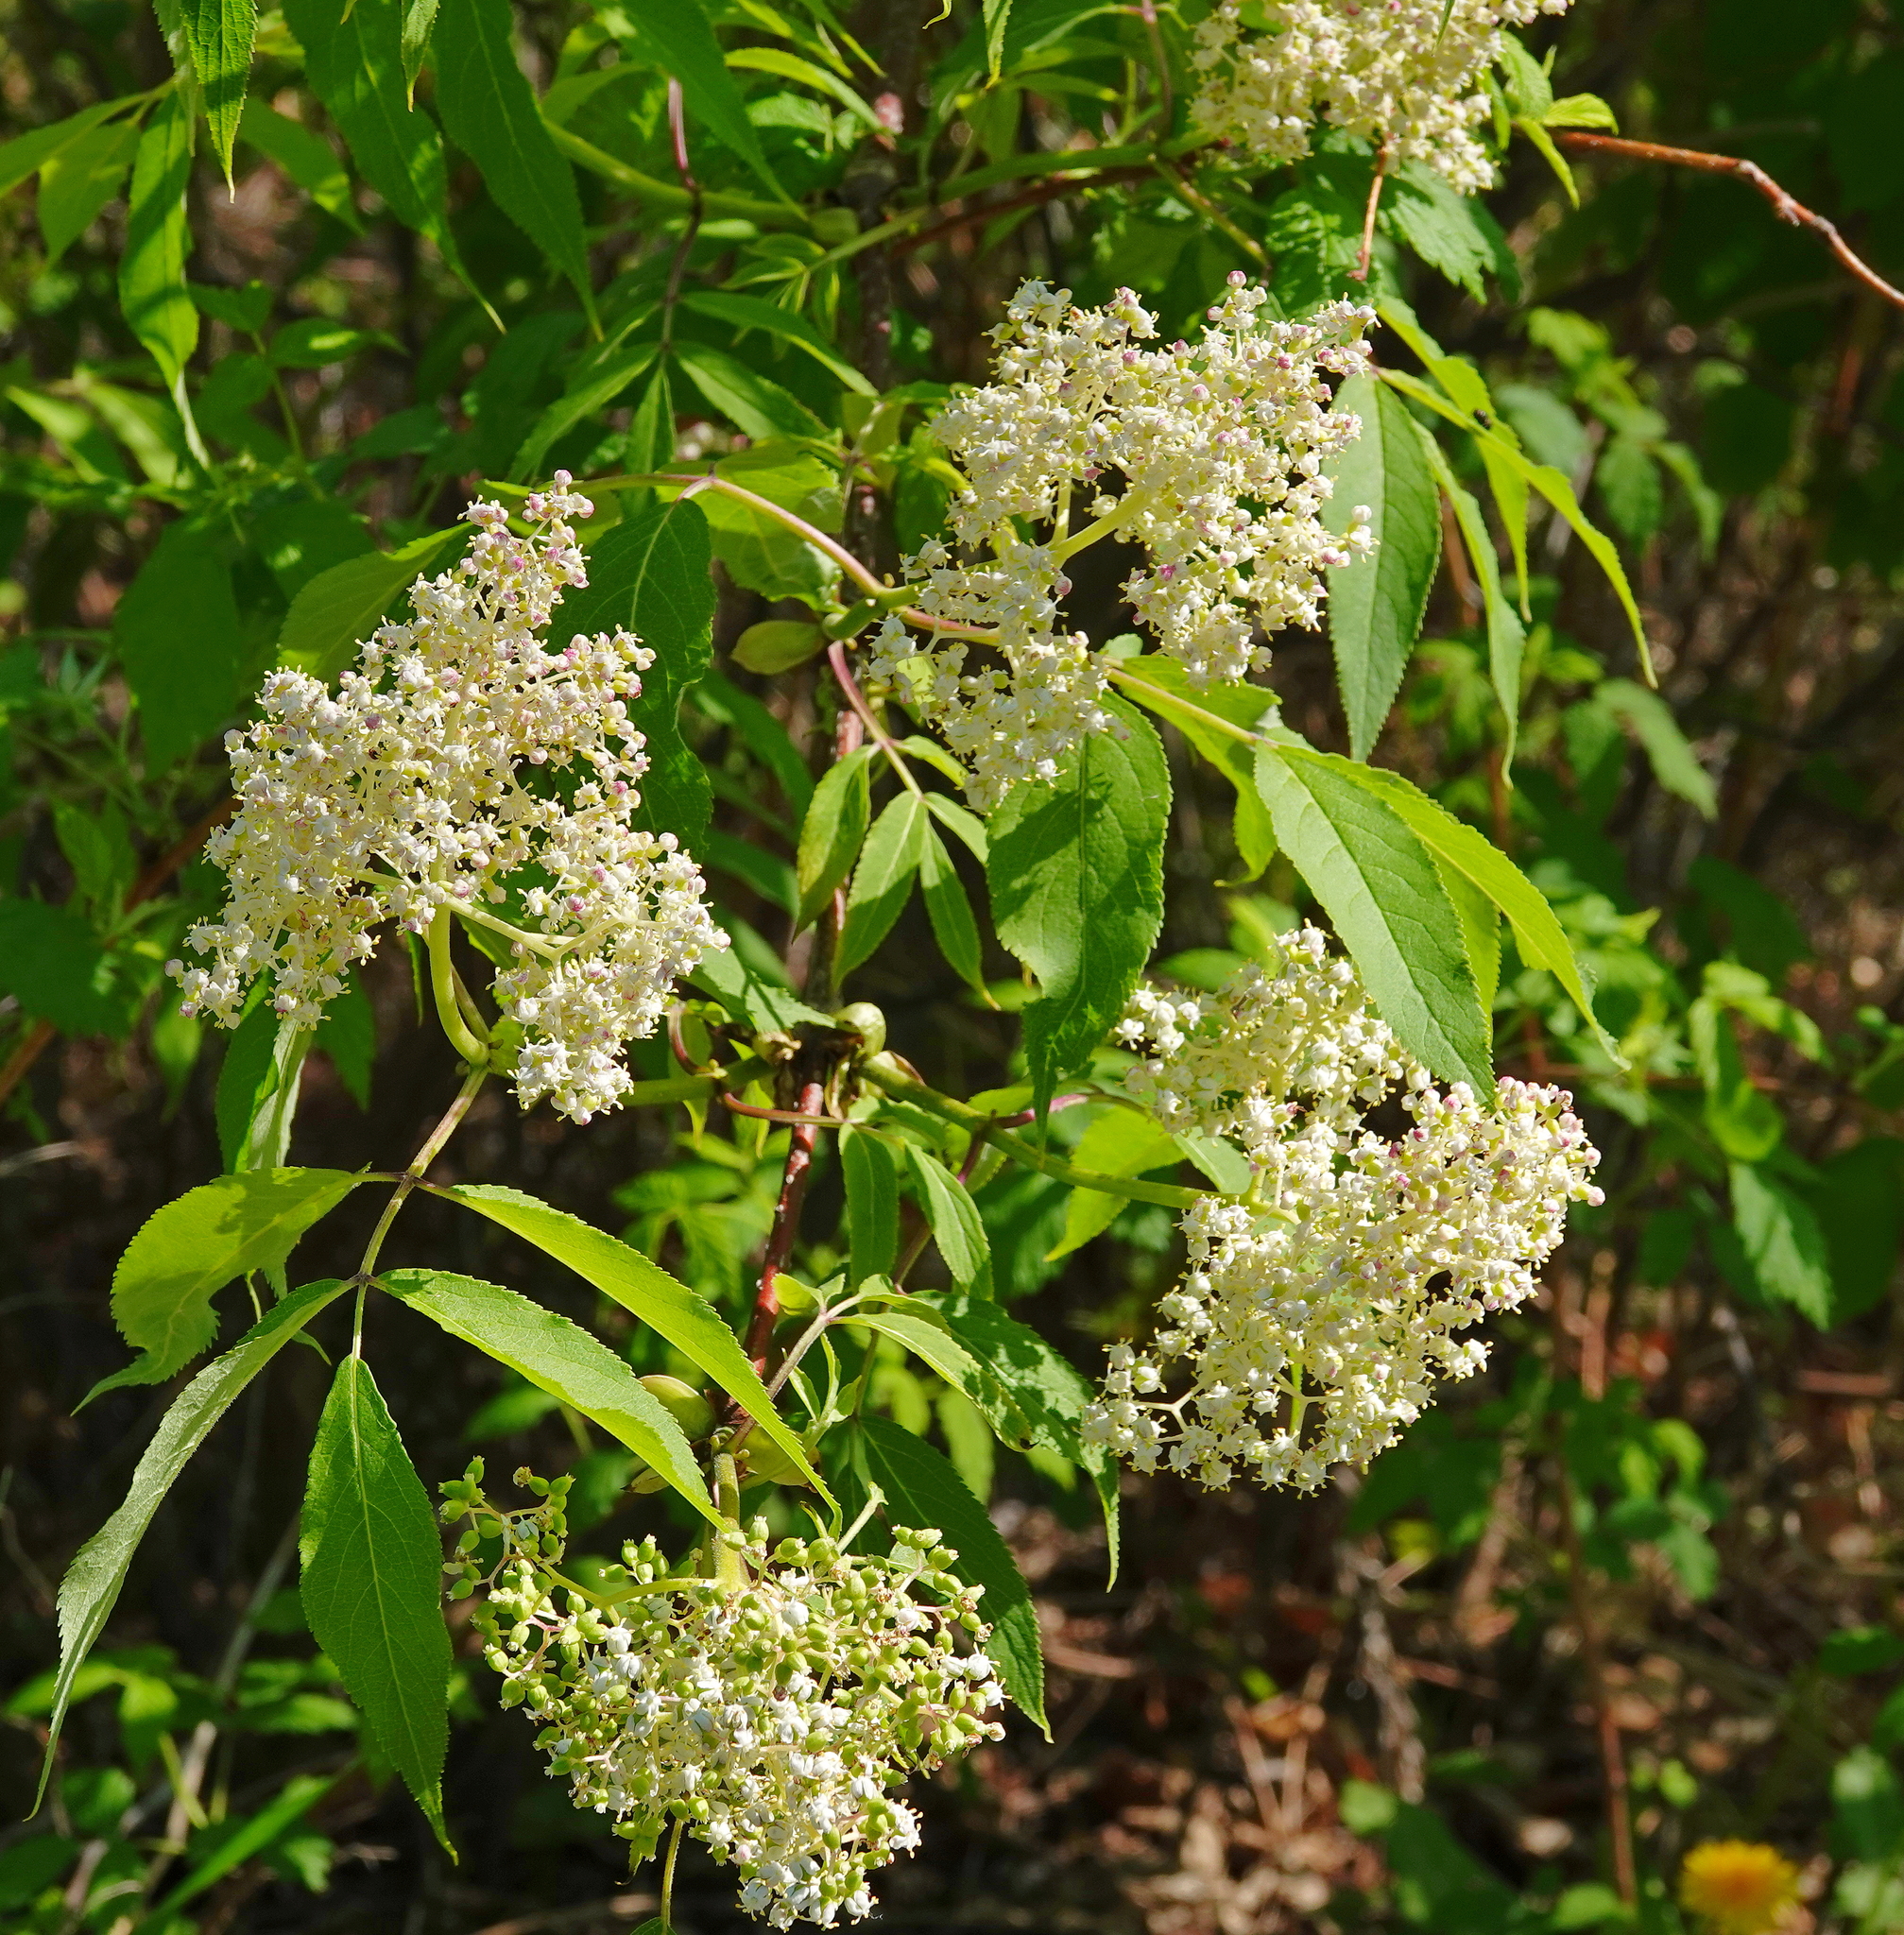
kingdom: Plantae
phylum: Tracheophyta
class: Magnoliopsida
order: Dipsacales
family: Viburnaceae
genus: Sambucus
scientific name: Sambucus racemosa
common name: Red-berried elder
